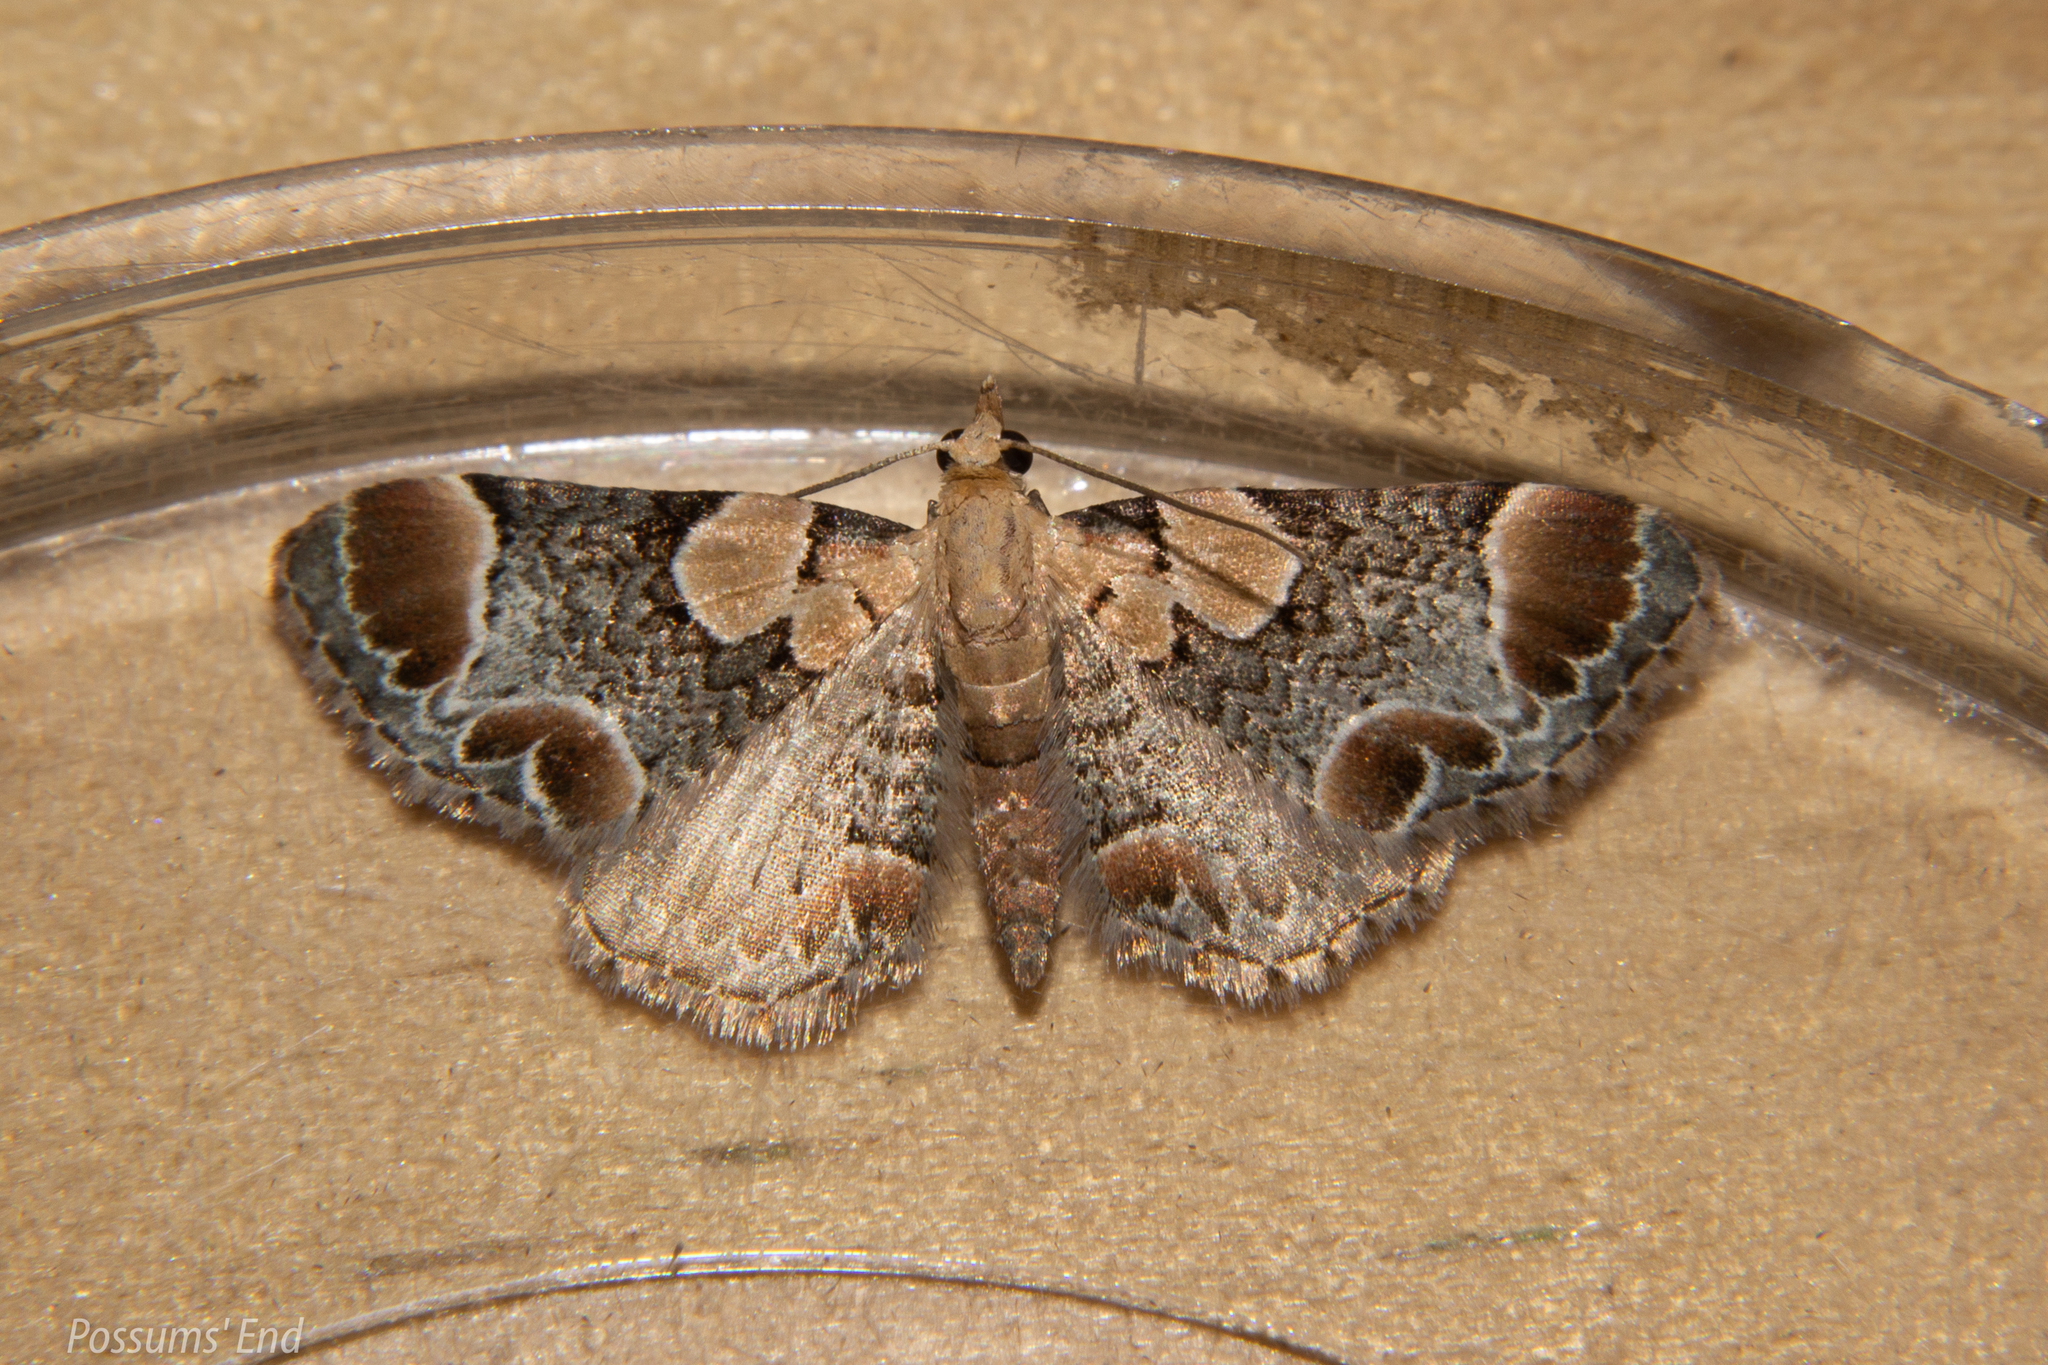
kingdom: Animalia
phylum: Arthropoda
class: Insecta
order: Lepidoptera
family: Geometridae
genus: Chloroclystis
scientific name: Chloroclystis
